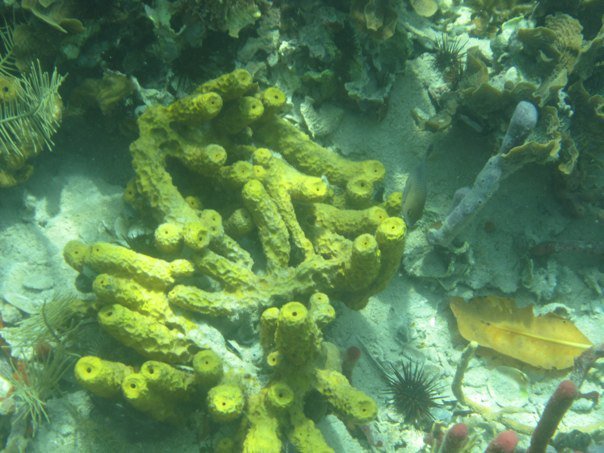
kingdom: Animalia
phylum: Porifera
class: Demospongiae
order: Verongiida
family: Aplysinidae
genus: Verongula
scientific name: Verongula rigida
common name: Pitted sponge
